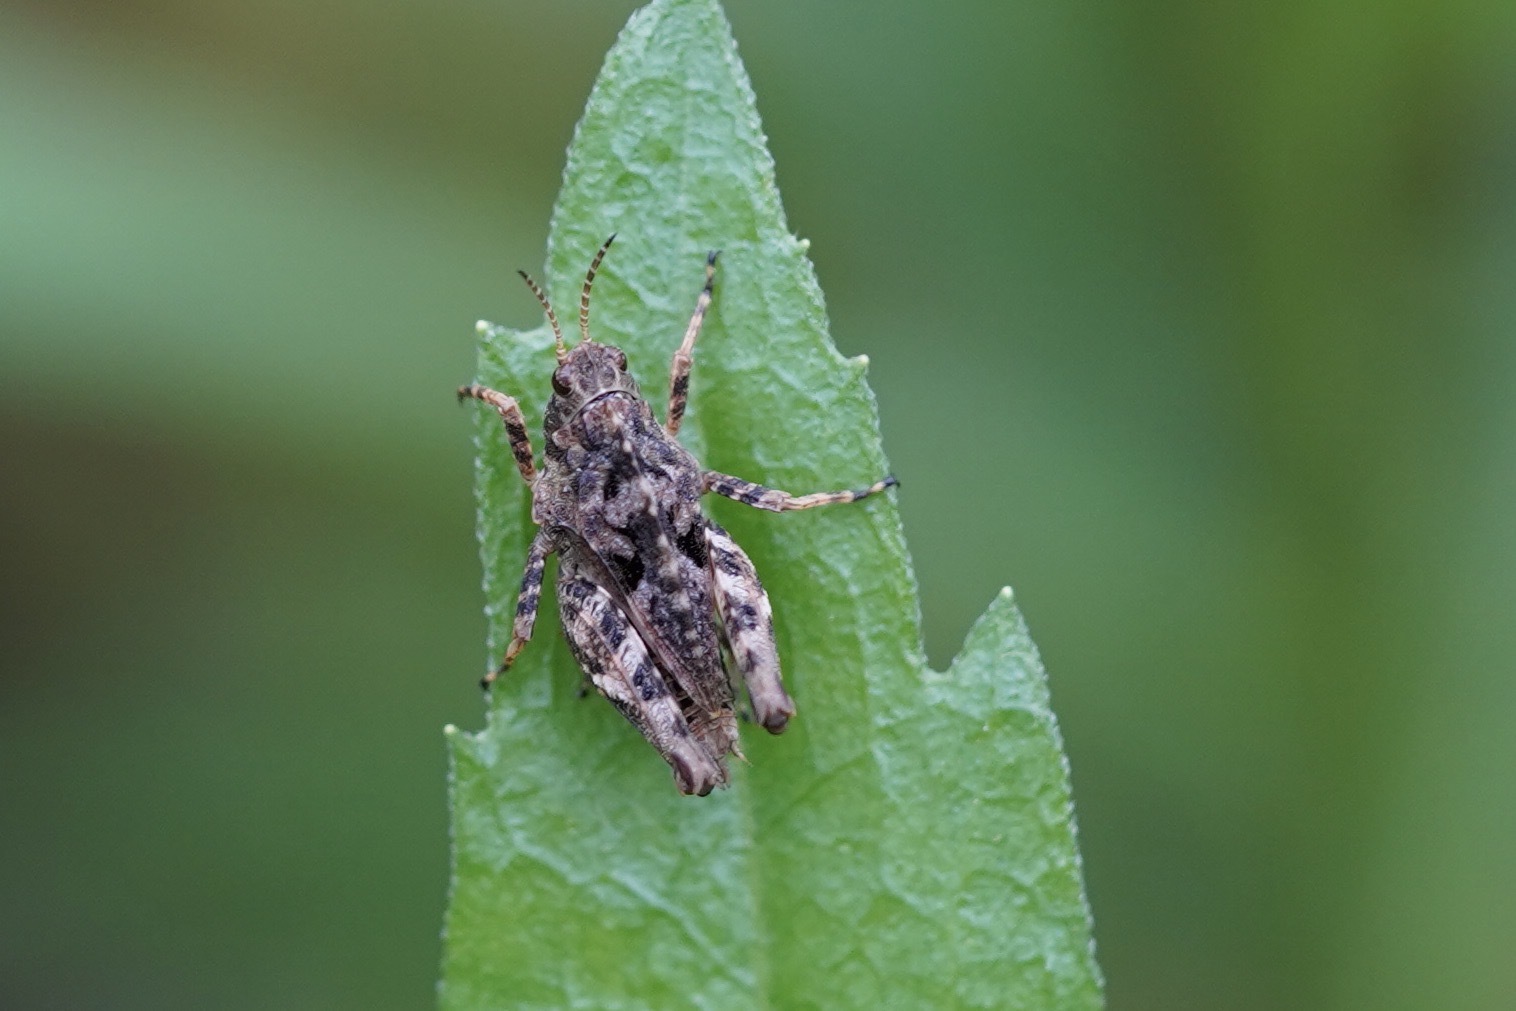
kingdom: Animalia
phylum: Arthropoda
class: Insecta
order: Orthoptera
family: Tetrigidae
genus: Tetrix
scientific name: Tetrix undulata
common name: Common groundhopper
